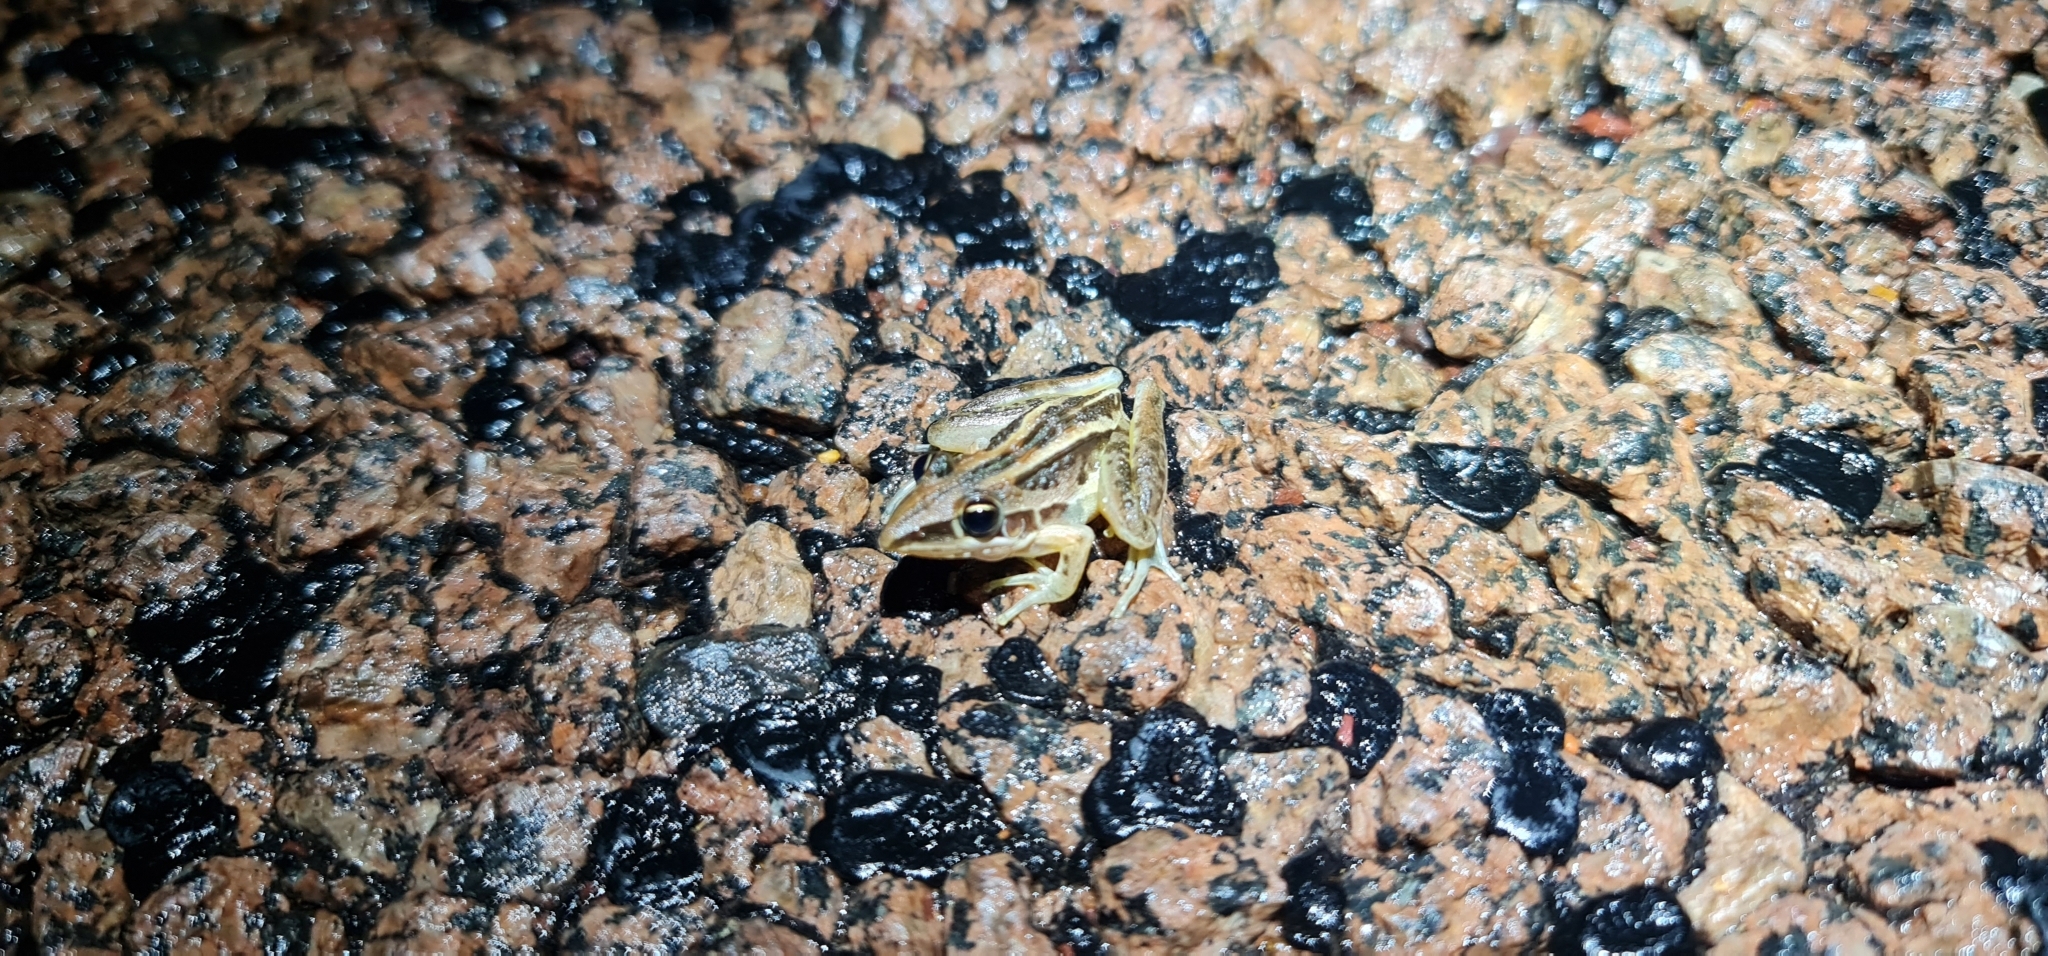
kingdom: Animalia
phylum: Chordata
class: Amphibia
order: Anura
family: Pelodryadidae
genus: Litoria
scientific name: Litoria nasuta
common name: Rocket frog
